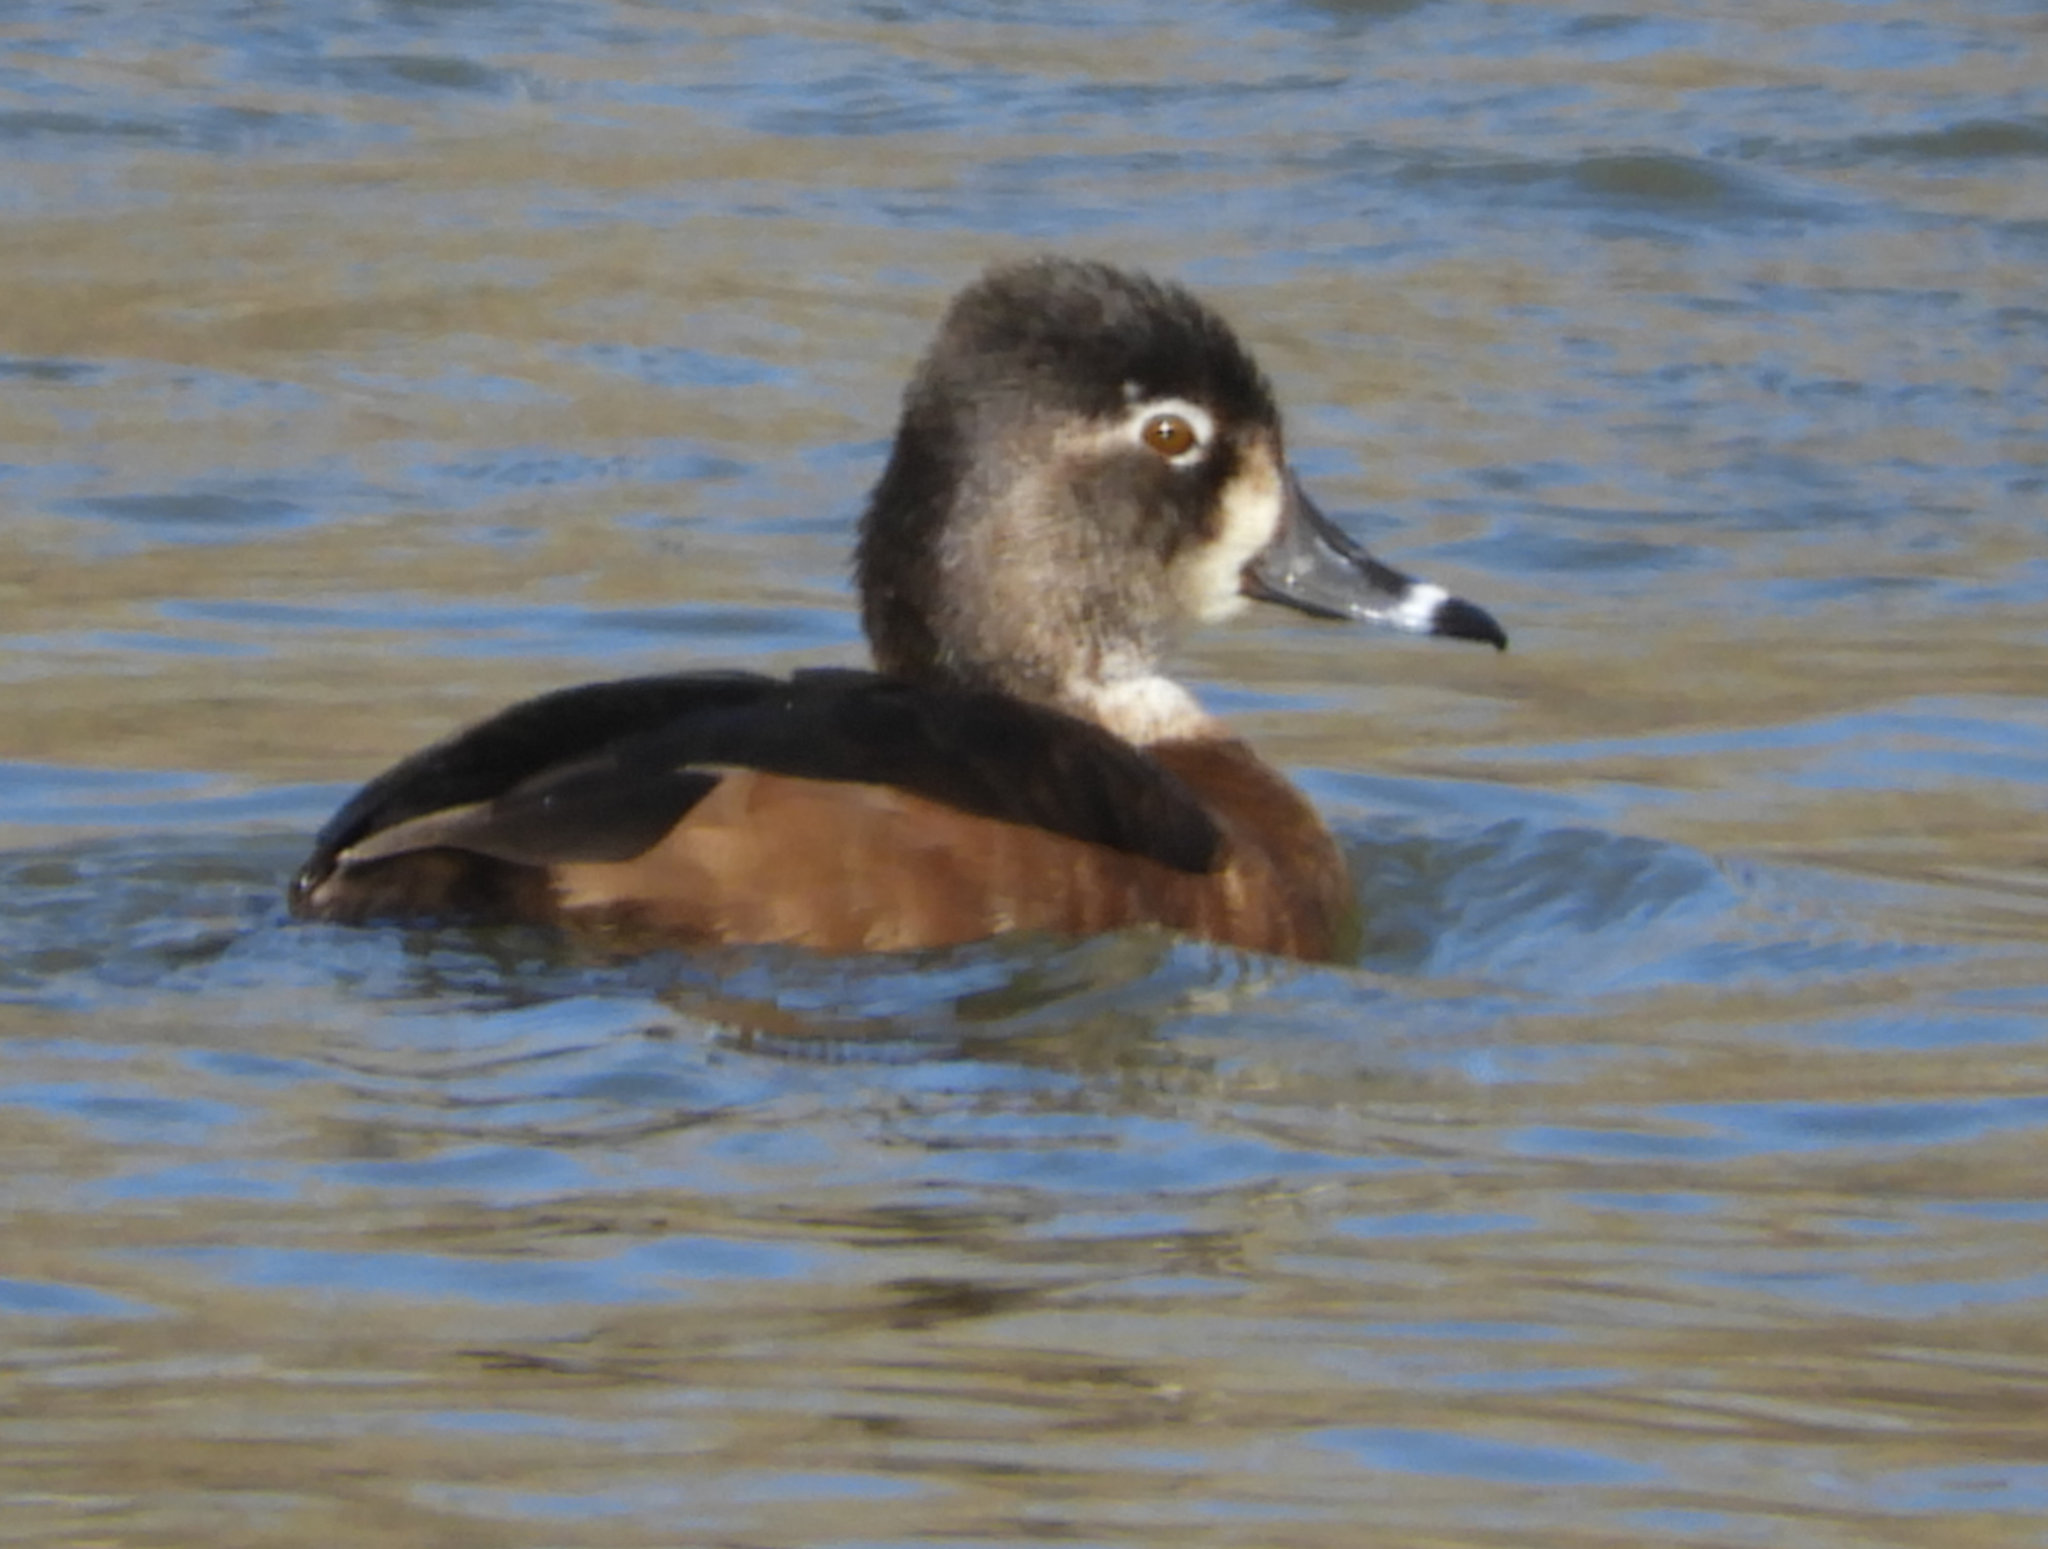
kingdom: Animalia
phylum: Chordata
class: Aves
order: Anseriformes
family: Anatidae
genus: Aythya
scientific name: Aythya collaris
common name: Ring-necked duck
